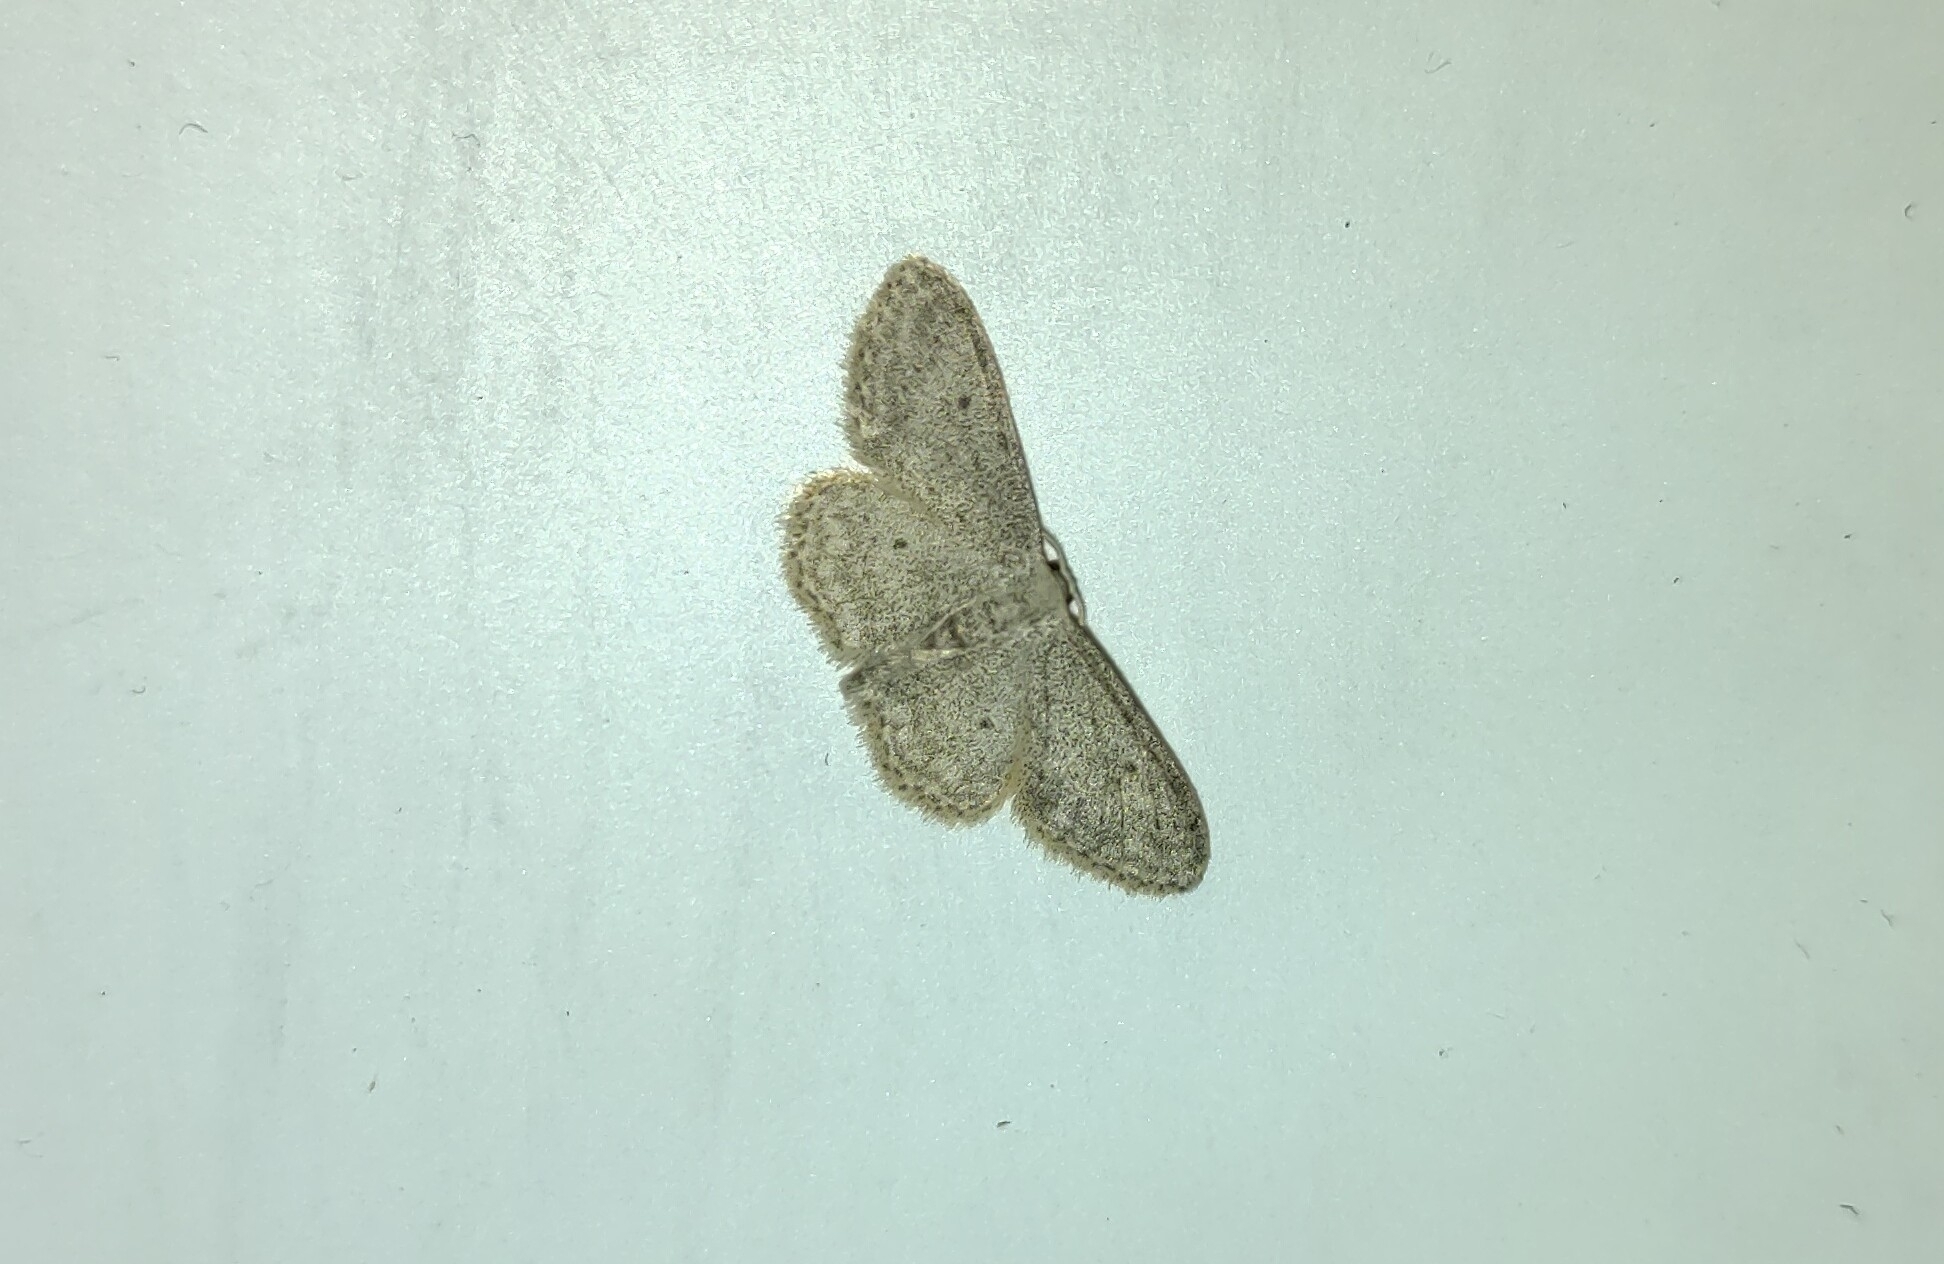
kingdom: Animalia
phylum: Arthropoda
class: Insecta
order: Lepidoptera
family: Geometridae
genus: Idaea
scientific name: Idaea seriata
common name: Small dusty wave
